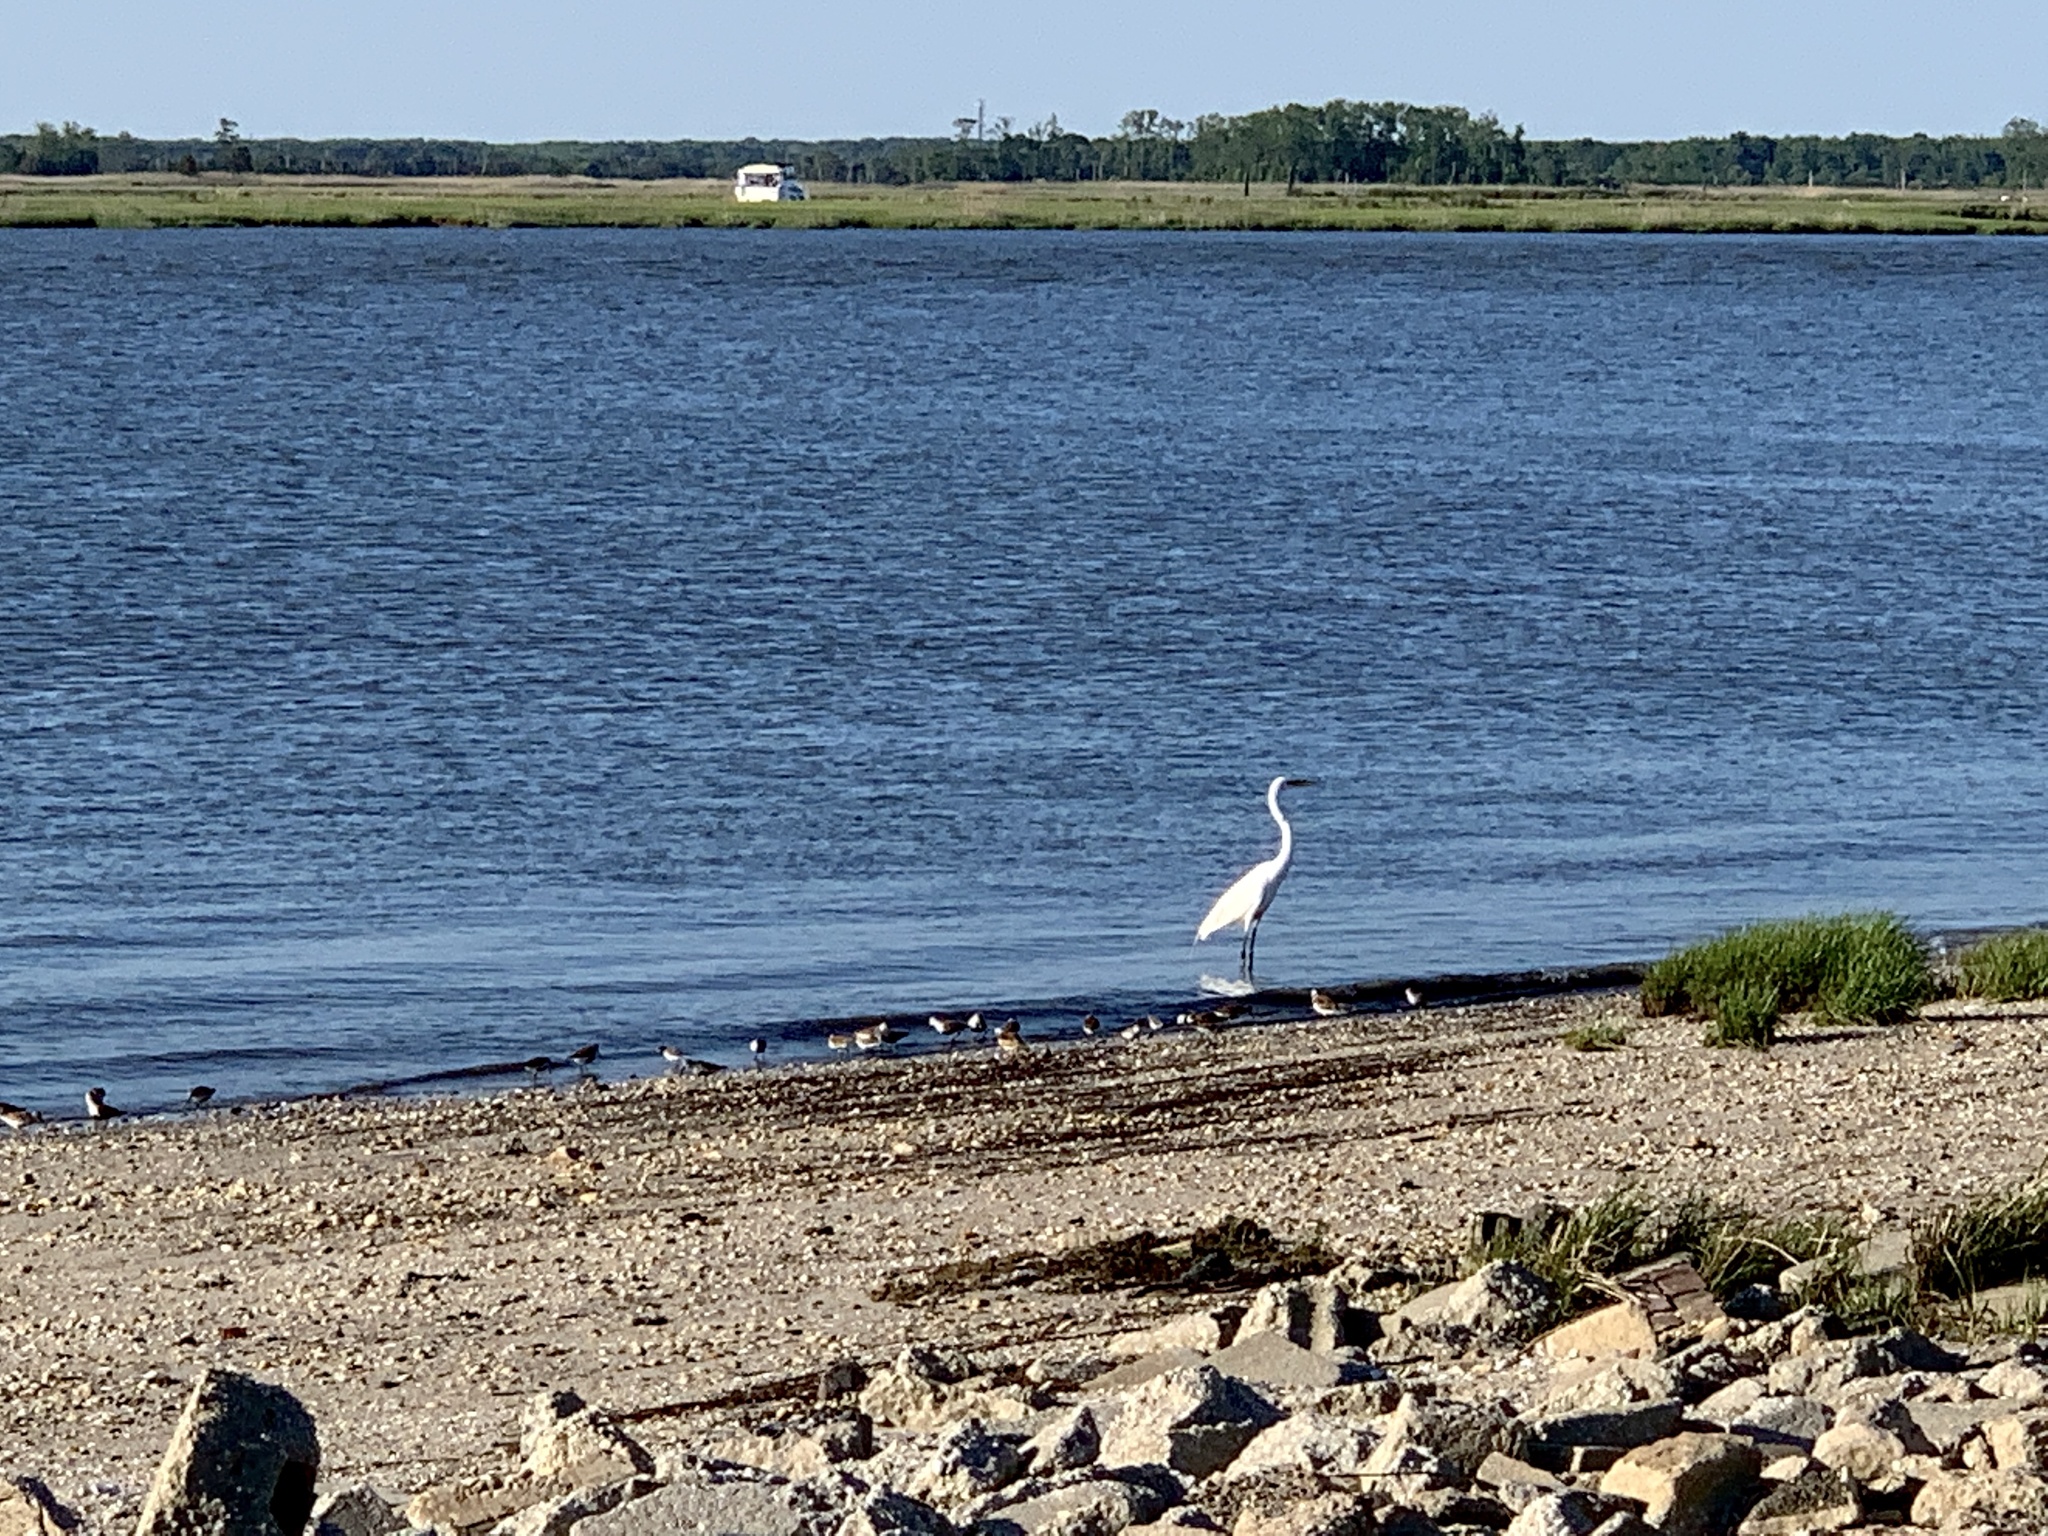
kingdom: Animalia
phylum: Chordata
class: Aves
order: Pelecaniformes
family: Ardeidae
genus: Ardea
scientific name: Ardea alba
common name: Great egret
